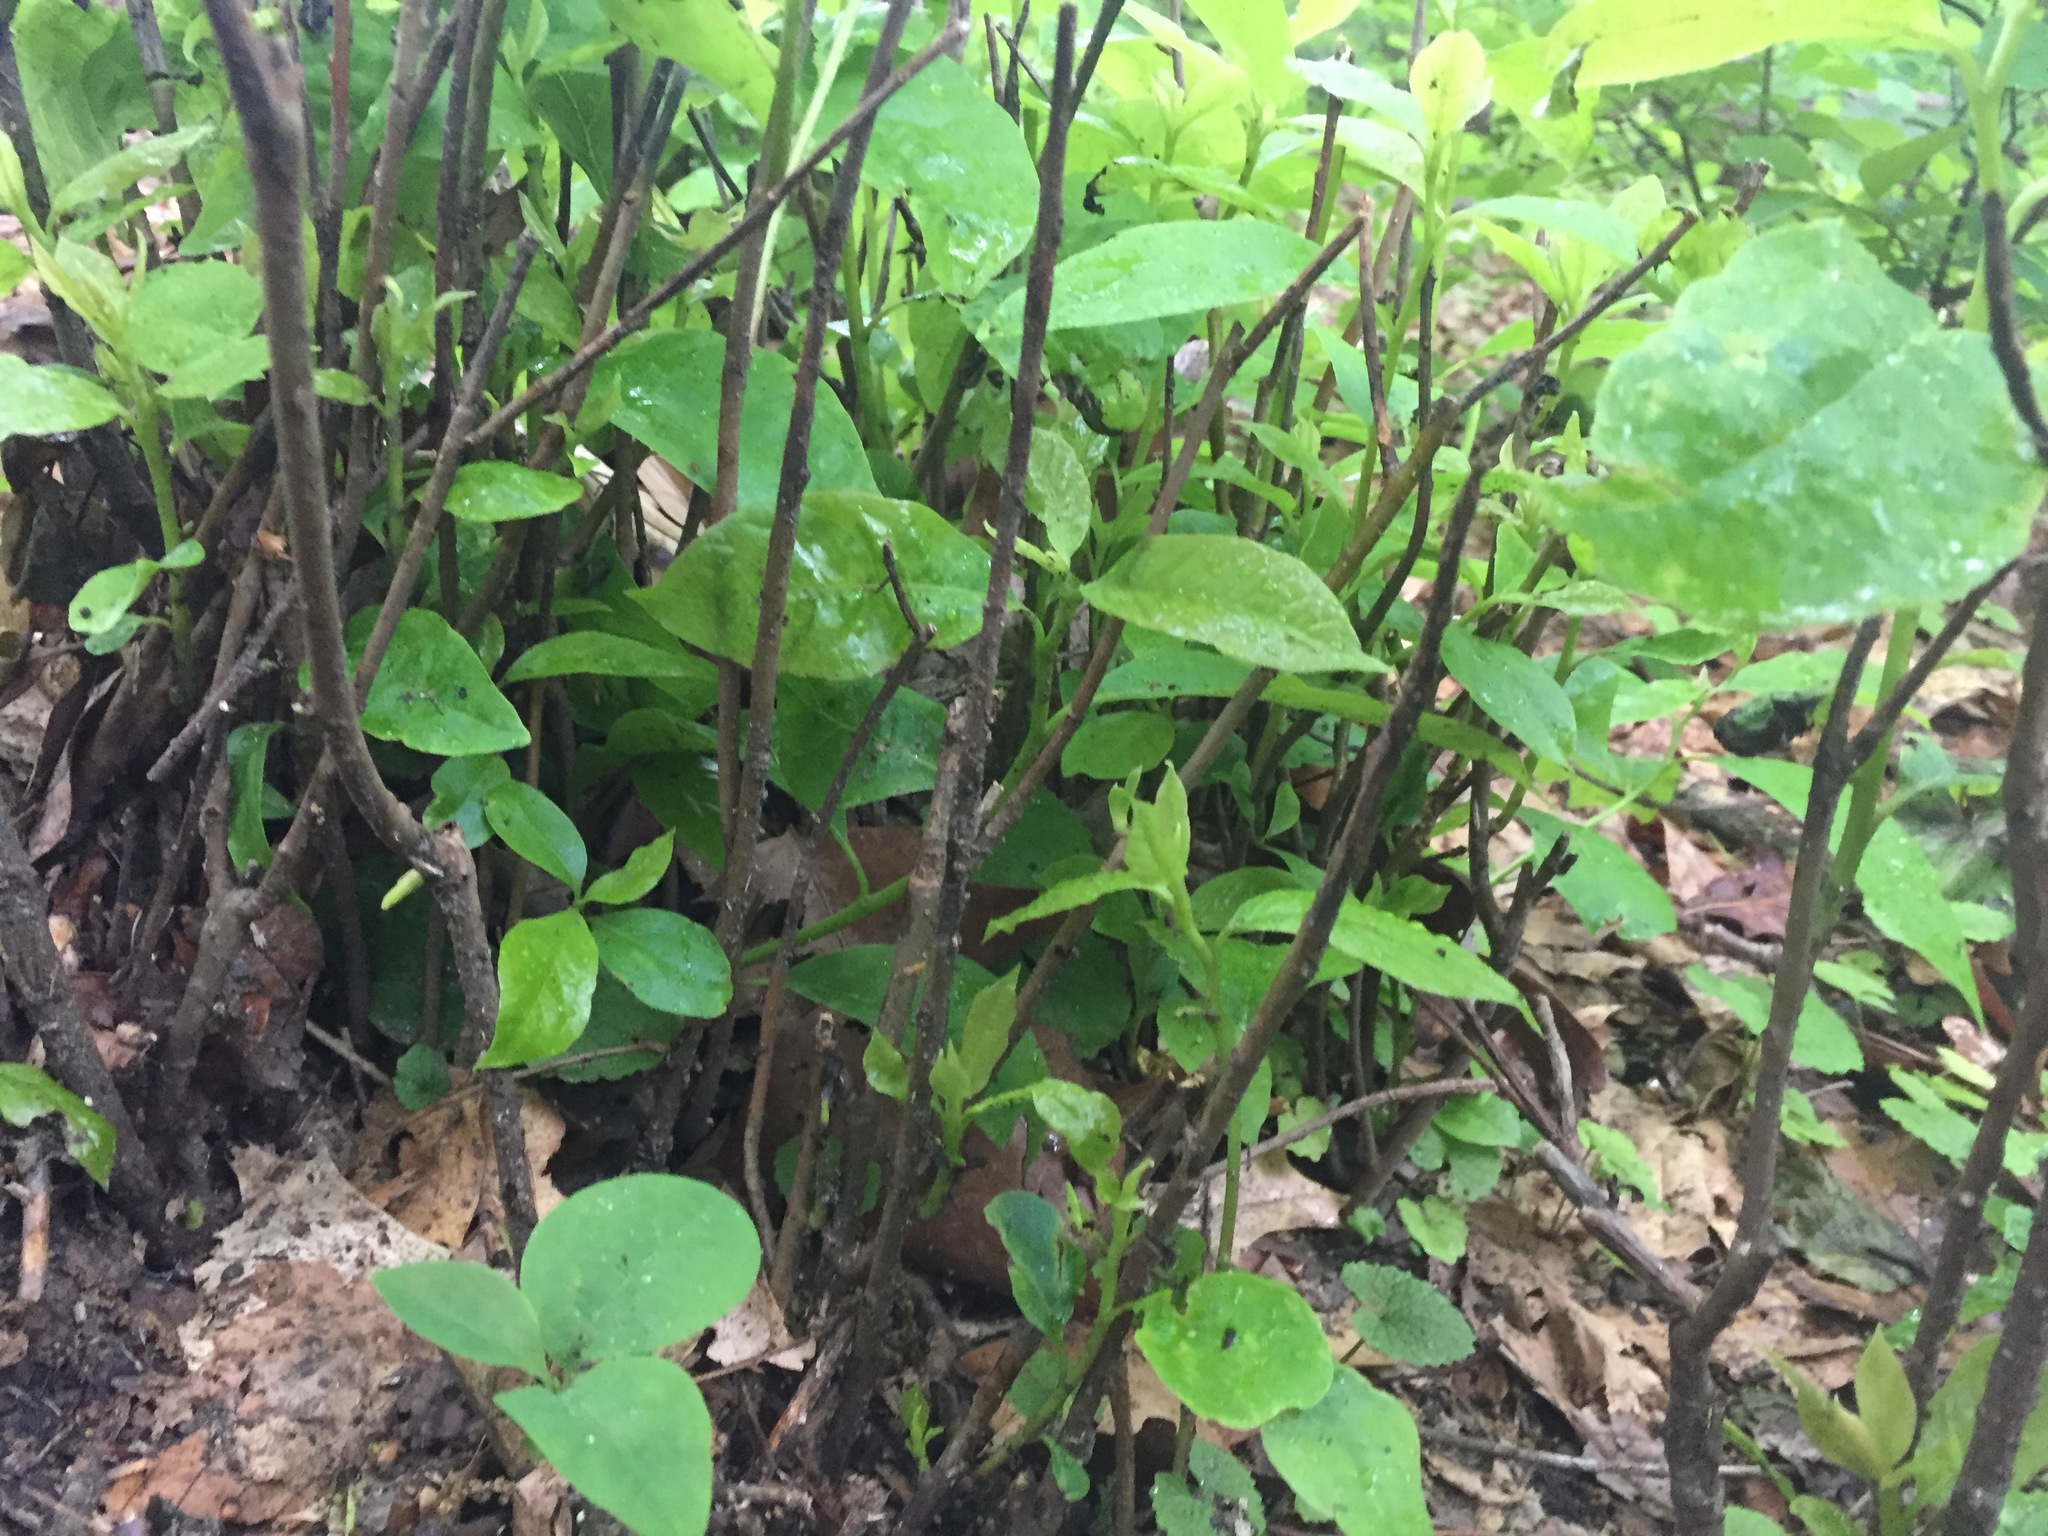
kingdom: Plantae
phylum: Tracheophyta
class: Magnoliopsida
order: Cornales
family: Nyssaceae
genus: Nyssa
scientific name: Nyssa sylvatica
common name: Black tupelo
